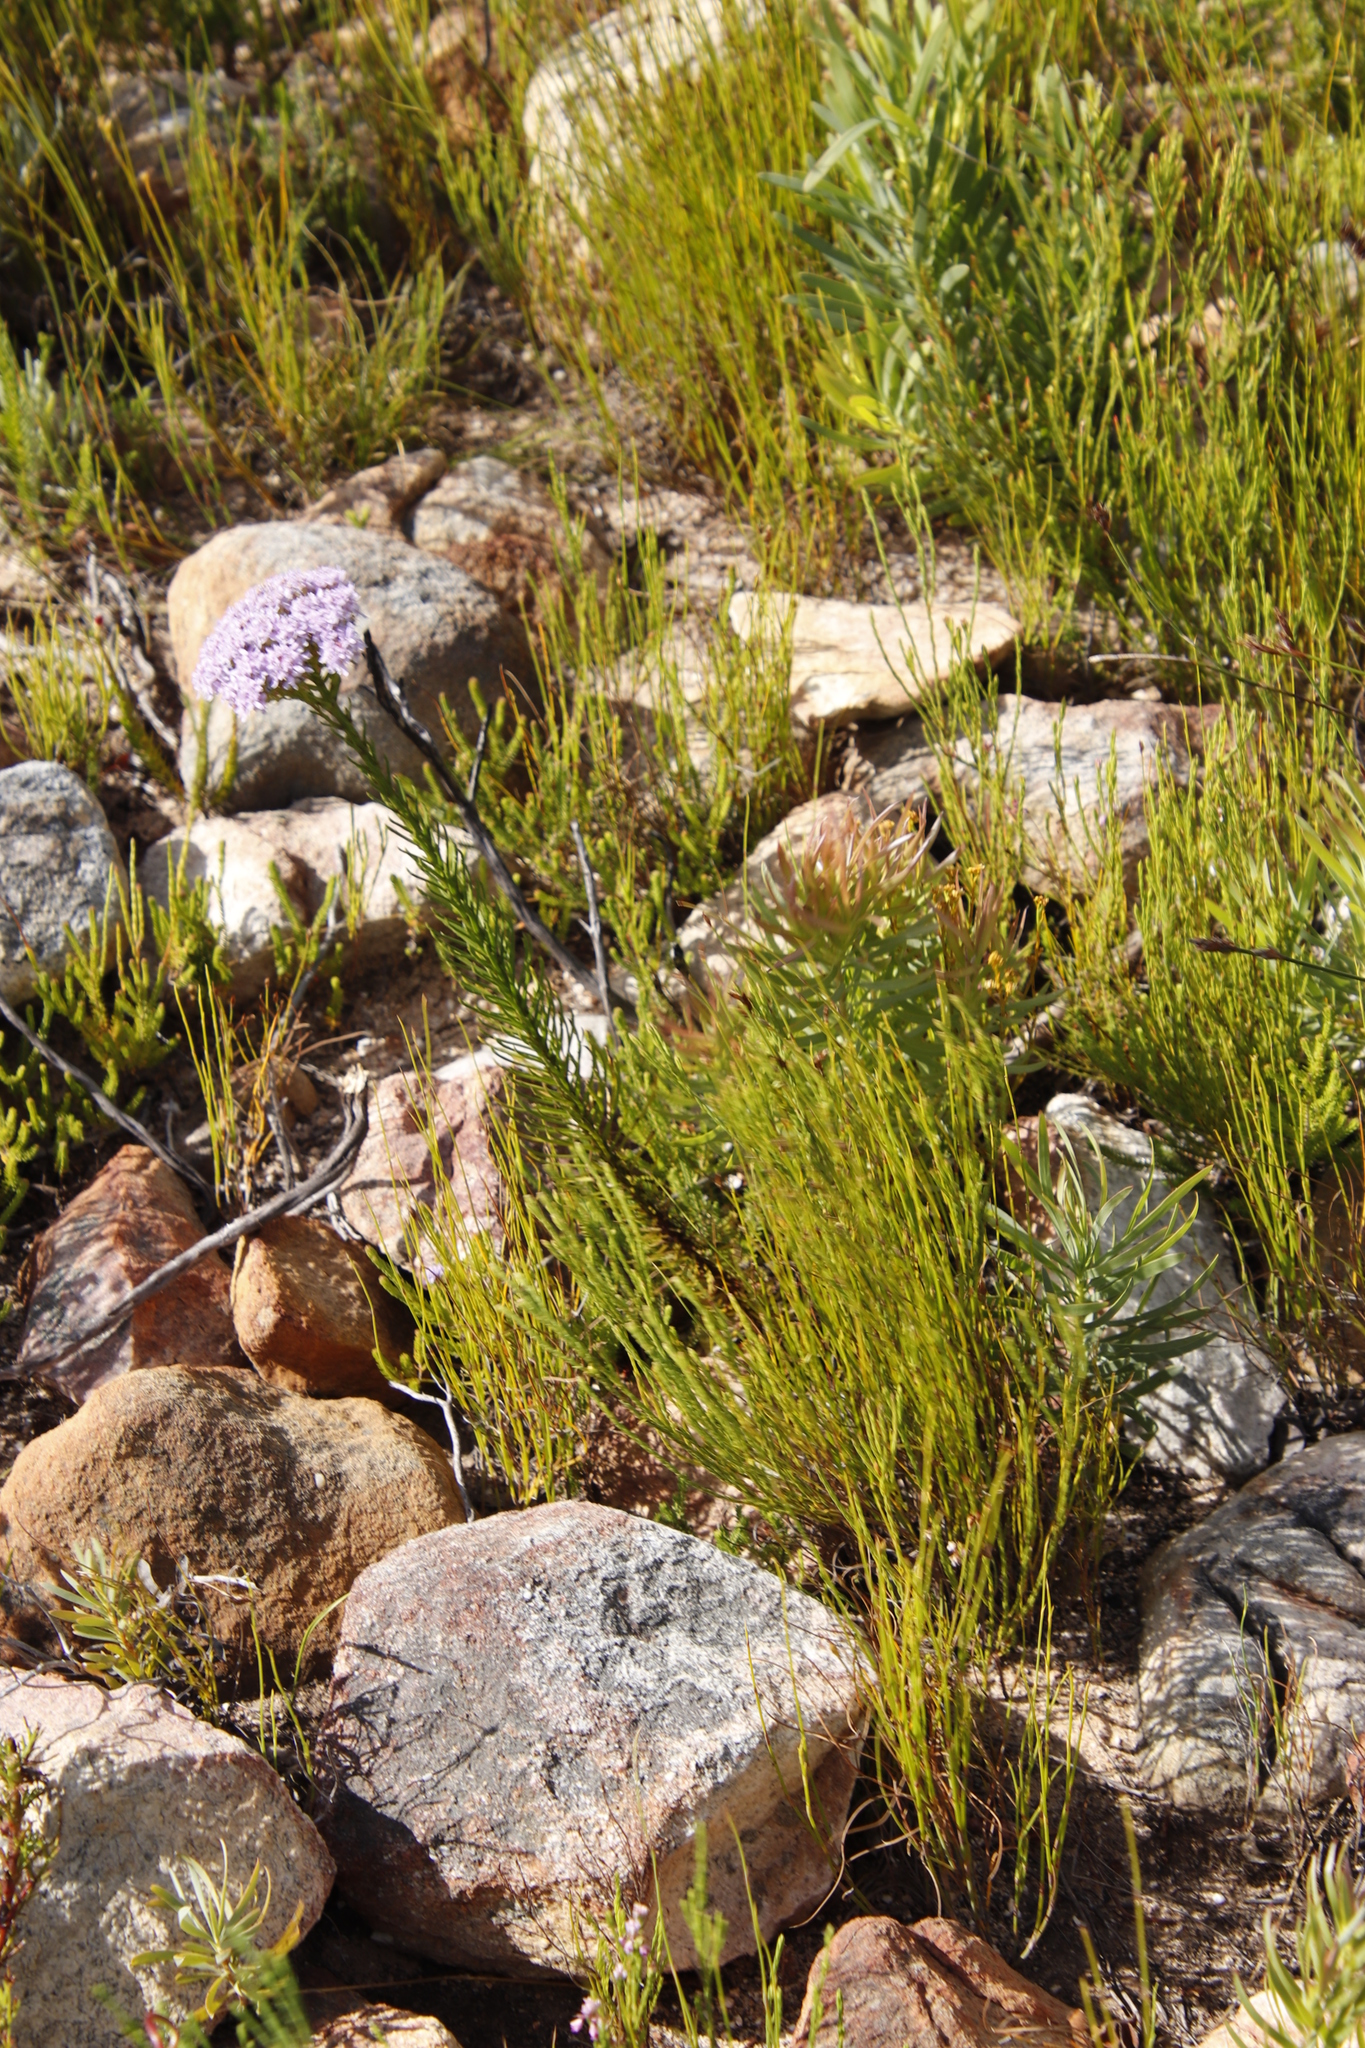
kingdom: Plantae
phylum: Tracheophyta
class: Magnoliopsida
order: Proteales
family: Proteaceae
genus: Leucadendron
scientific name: Leucadendron xanthoconus
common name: Sickle-leaf conebush
